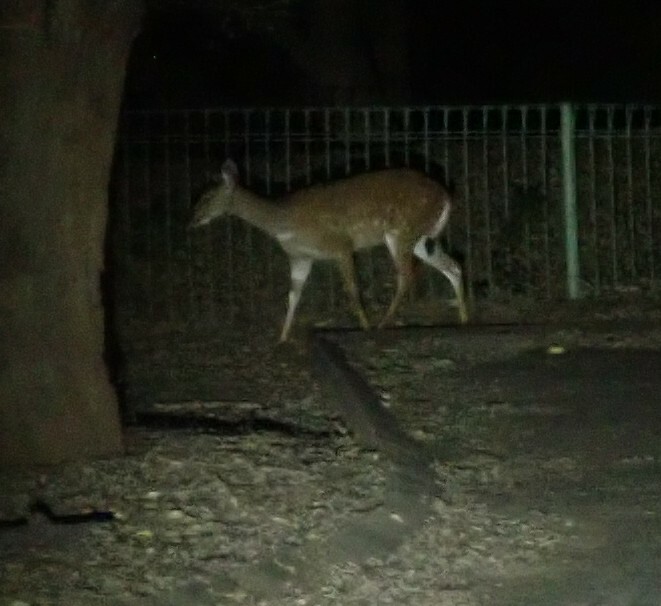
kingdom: Animalia
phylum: Chordata
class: Mammalia
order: Artiodactyla
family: Bovidae
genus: Tragelaphus
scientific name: Tragelaphus scriptus
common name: Bushbuck
